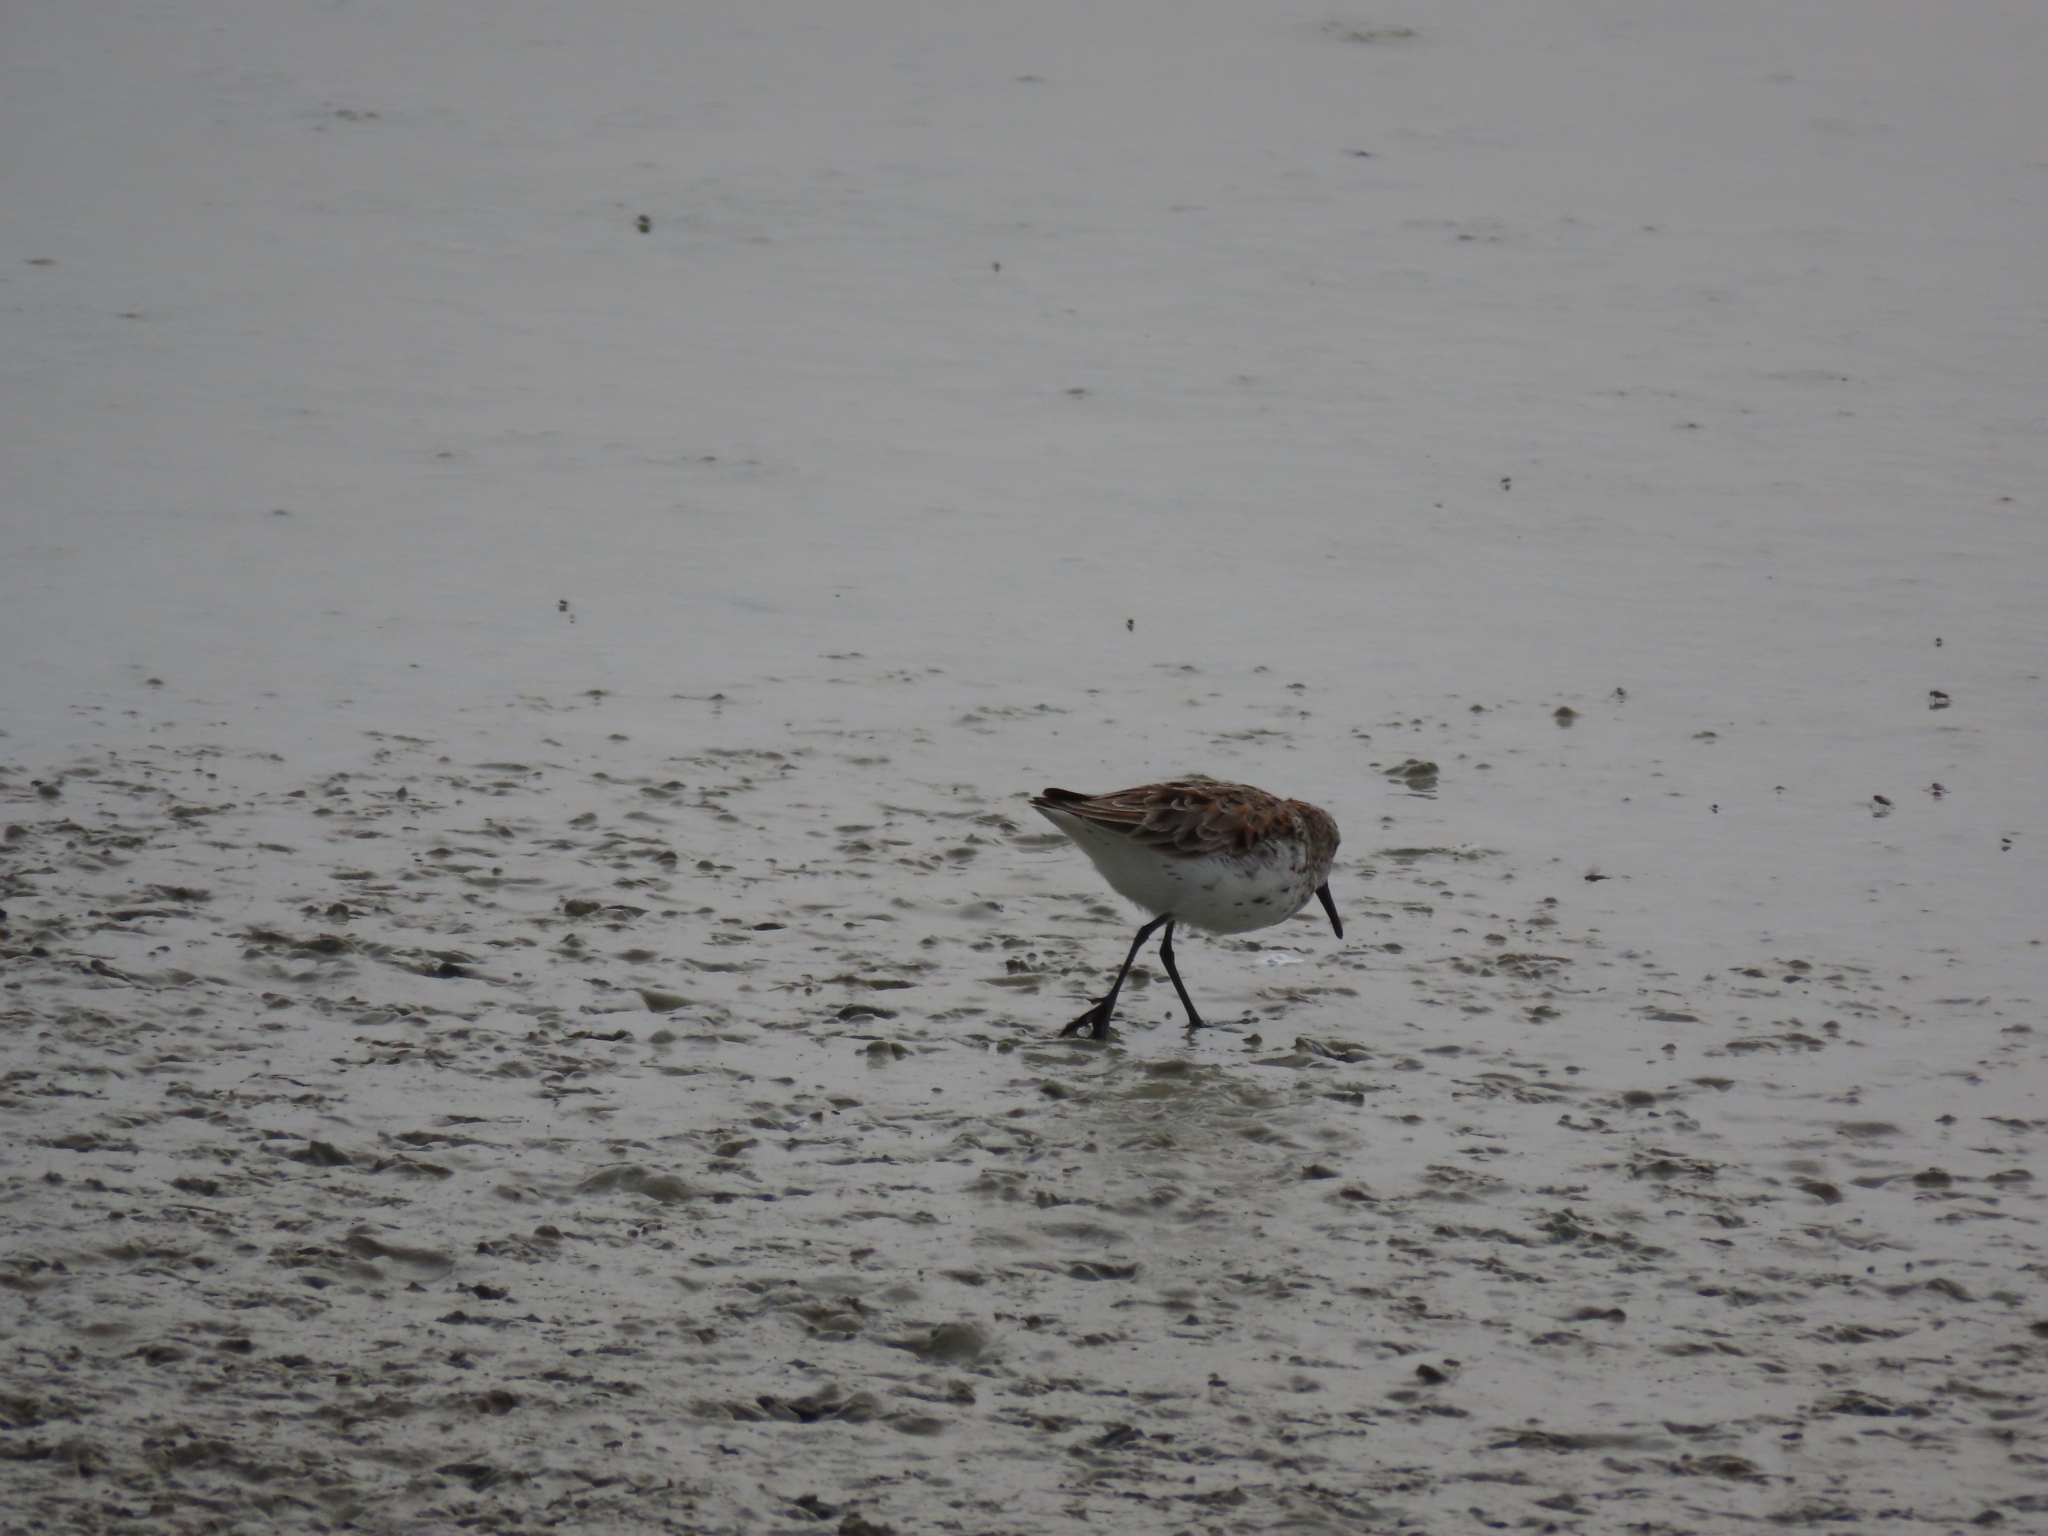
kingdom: Animalia
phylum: Chordata
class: Aves
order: Charadriiformes
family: Scolopacidae
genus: Calidris
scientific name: Calidris mauri
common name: Western sandpiper
